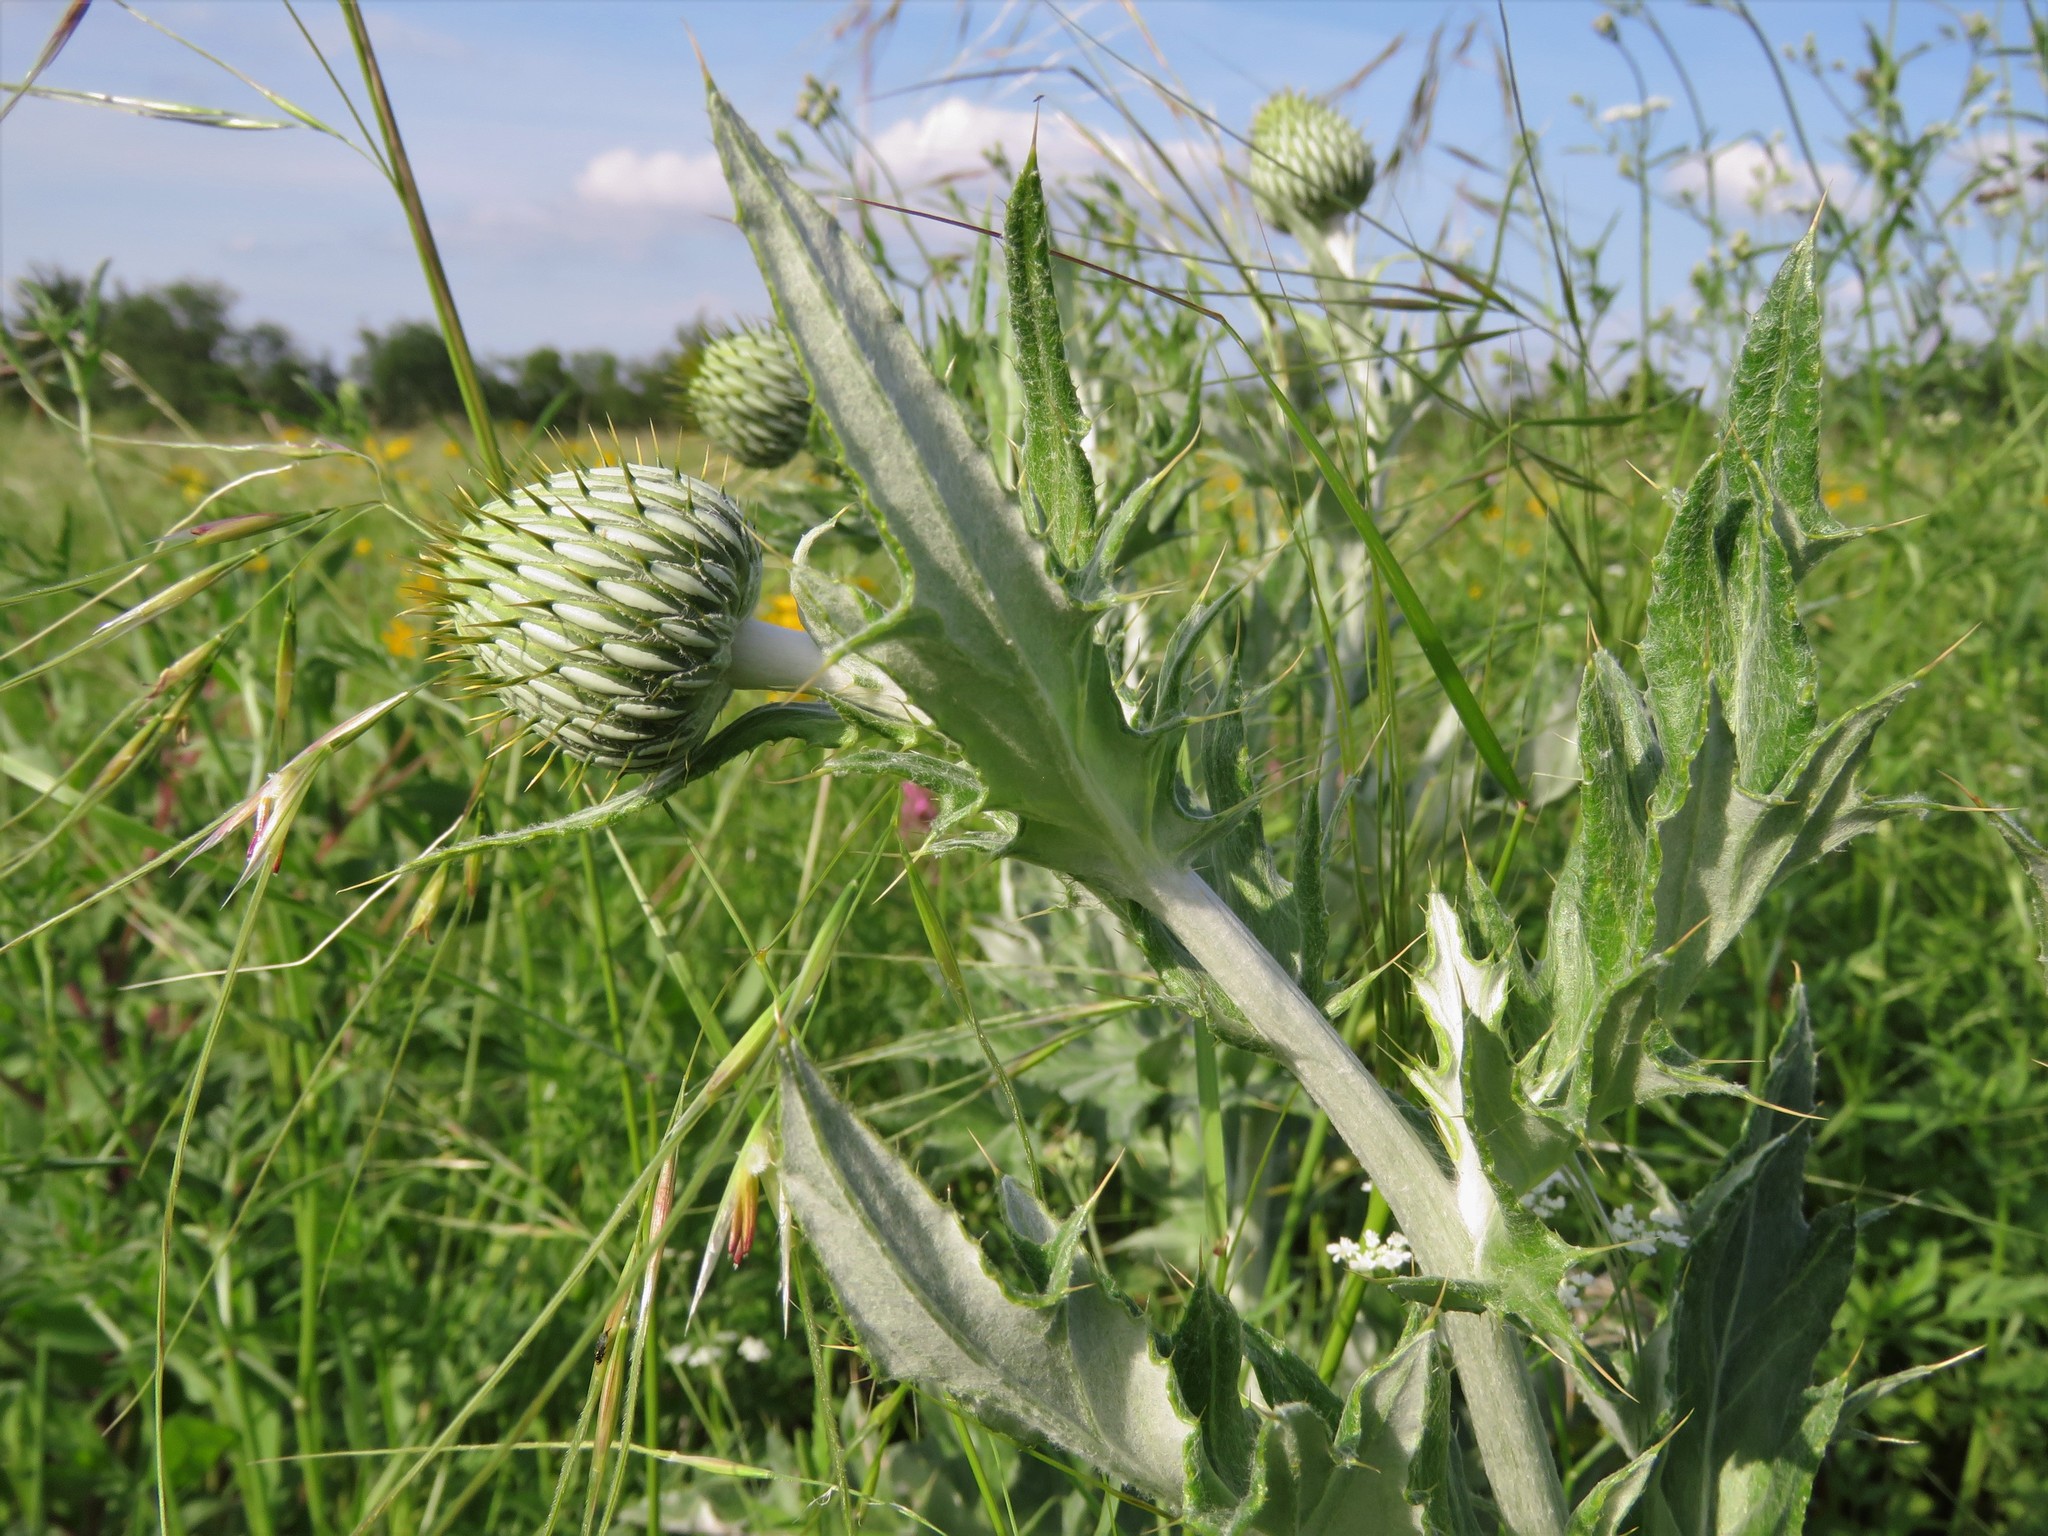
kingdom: Plantae
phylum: Tracheophyta
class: Magnoliopsida
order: Asterales
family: Asteraceae
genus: Cirsium
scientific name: Cirsium undulatum
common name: Pasture thistle
